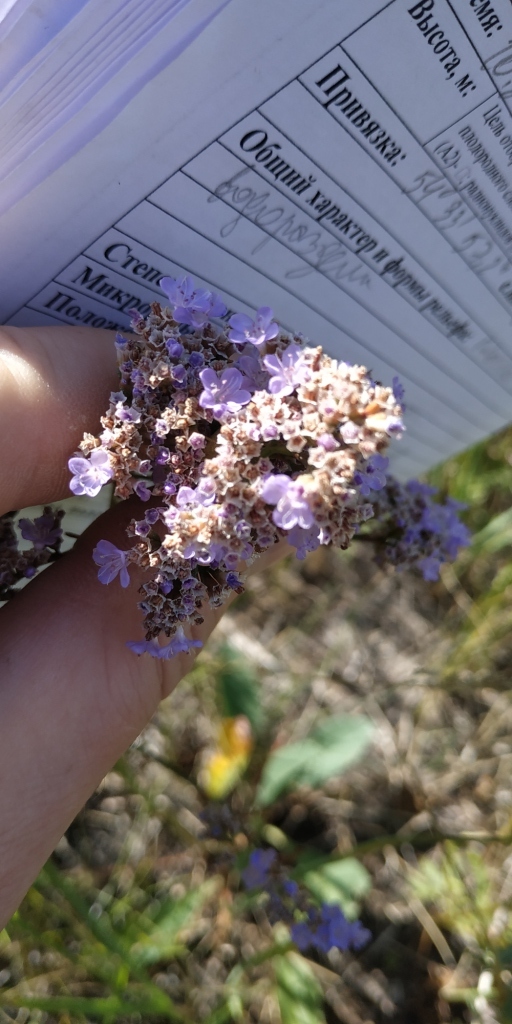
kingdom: Plantae
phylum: Tracheophyta
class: Magnoliopsida
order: Caryophyllales
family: Plumbaginaceae
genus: Limonium
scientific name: Limonium gmelini
